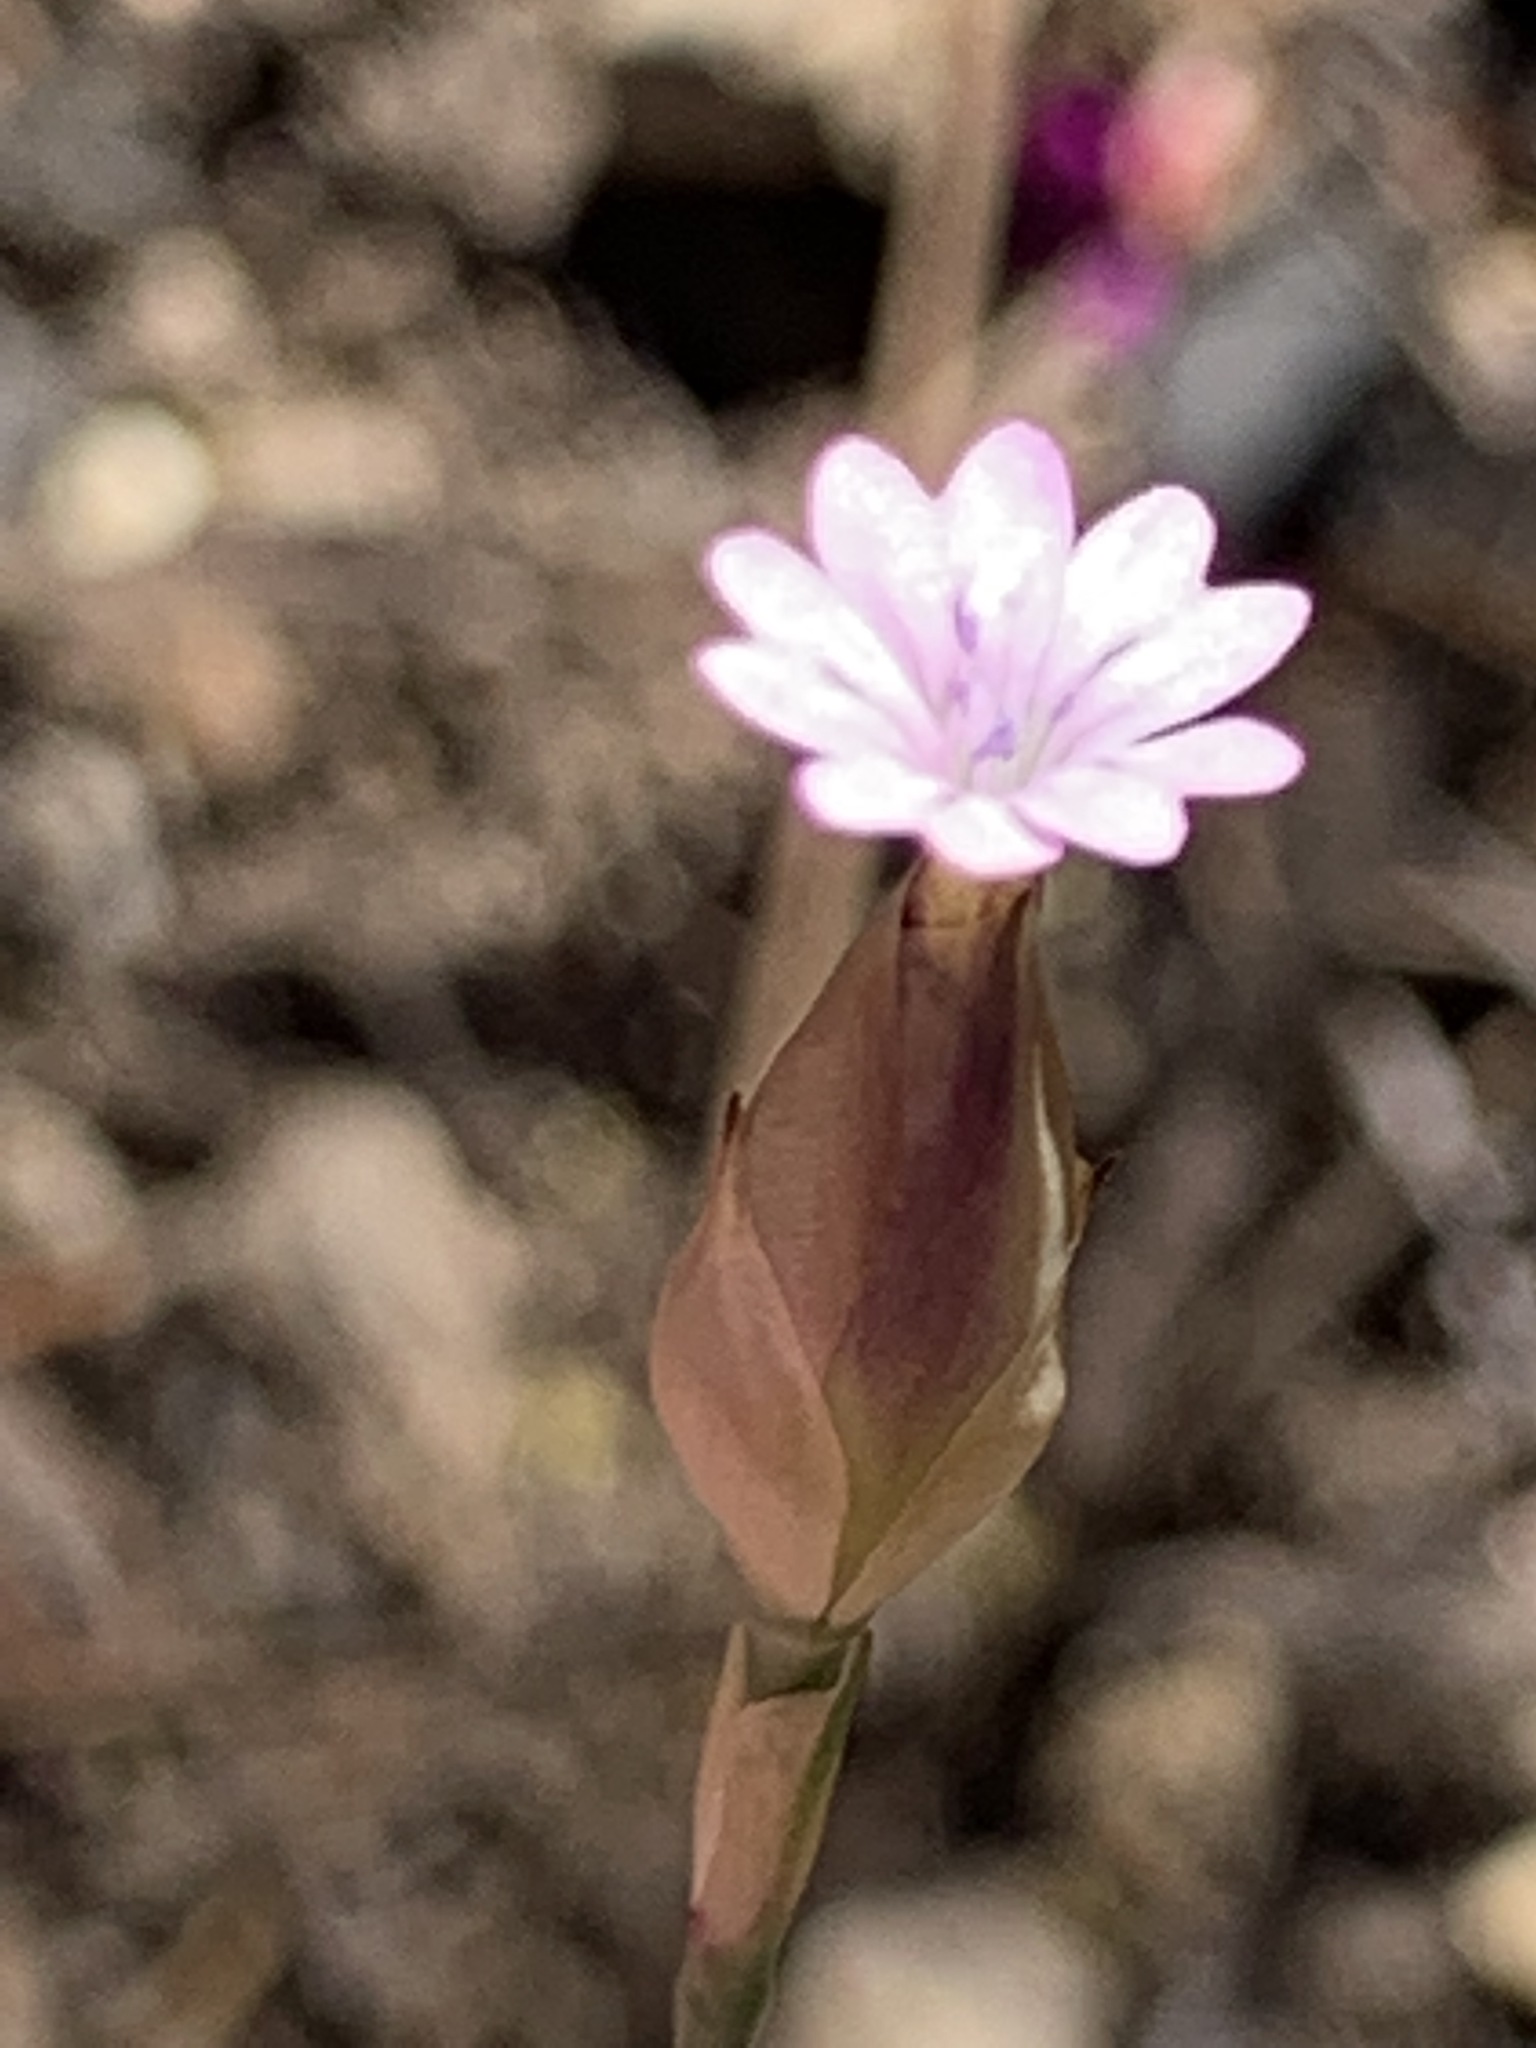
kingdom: Plantae
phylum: Tracheophyta
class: Magnoliopsida
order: Caryophyllales
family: Caryophyllaceae
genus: Petrorhagia
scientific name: Petrorhagia prolifera
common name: Proliferous pink
